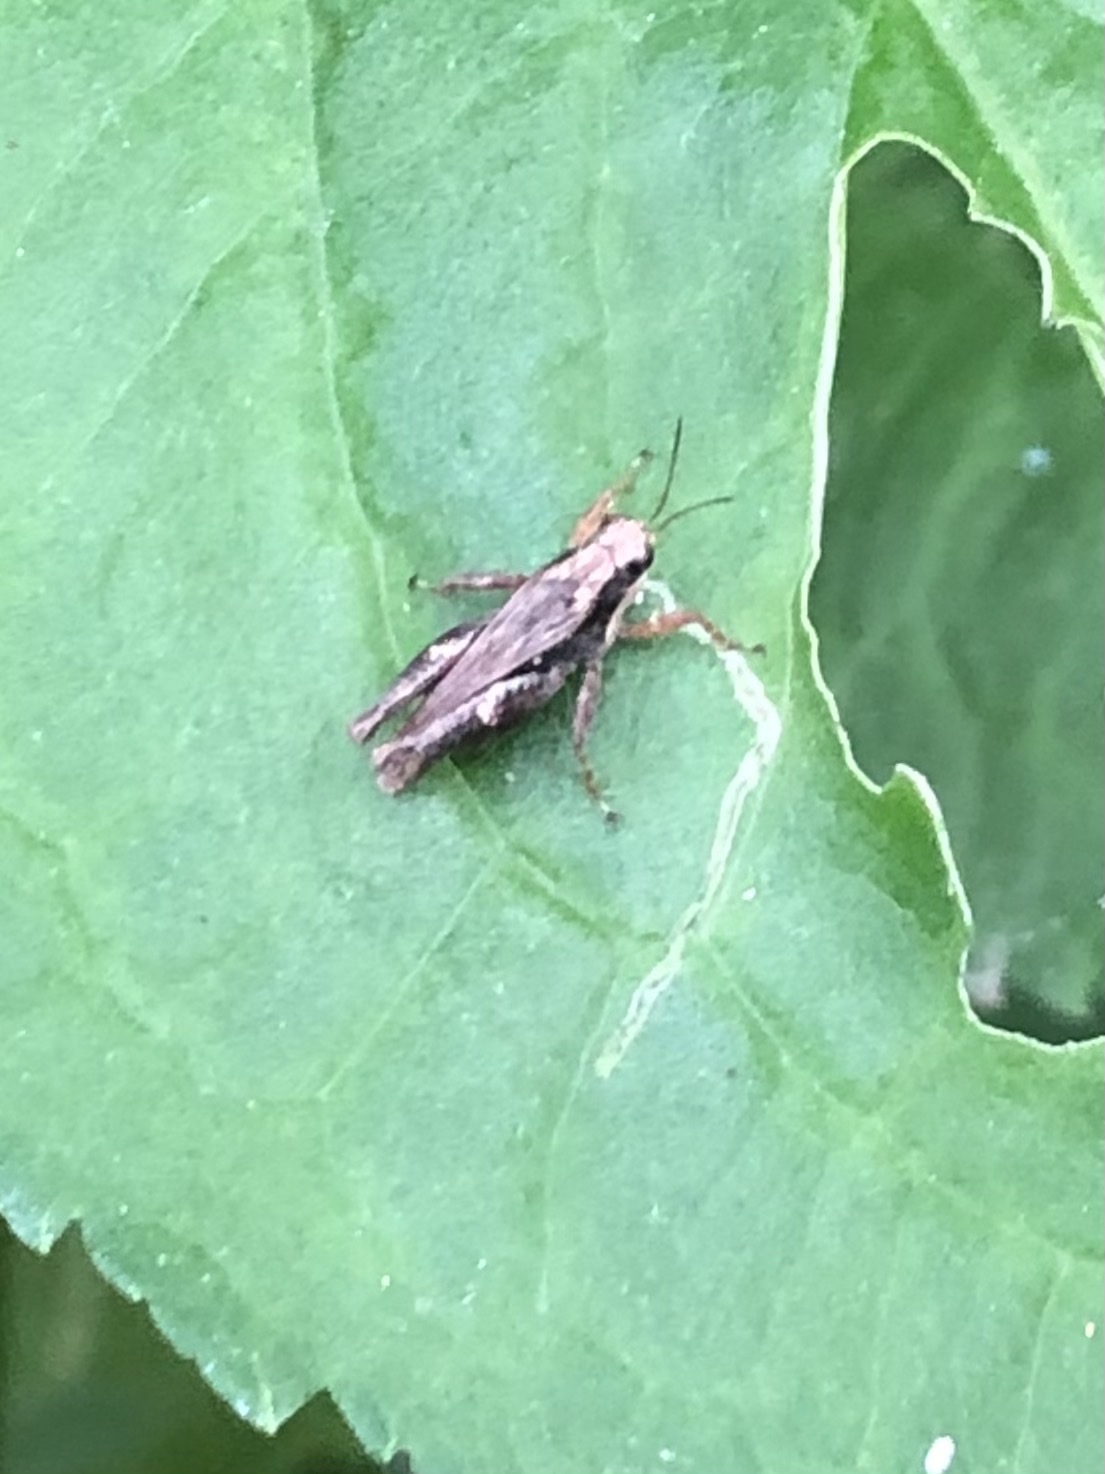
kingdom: Animalia
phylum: Arthropoda
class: Insecta
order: Orthoptera
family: Tetrigidae
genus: Tettigidea
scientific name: Tettigidea laterale
